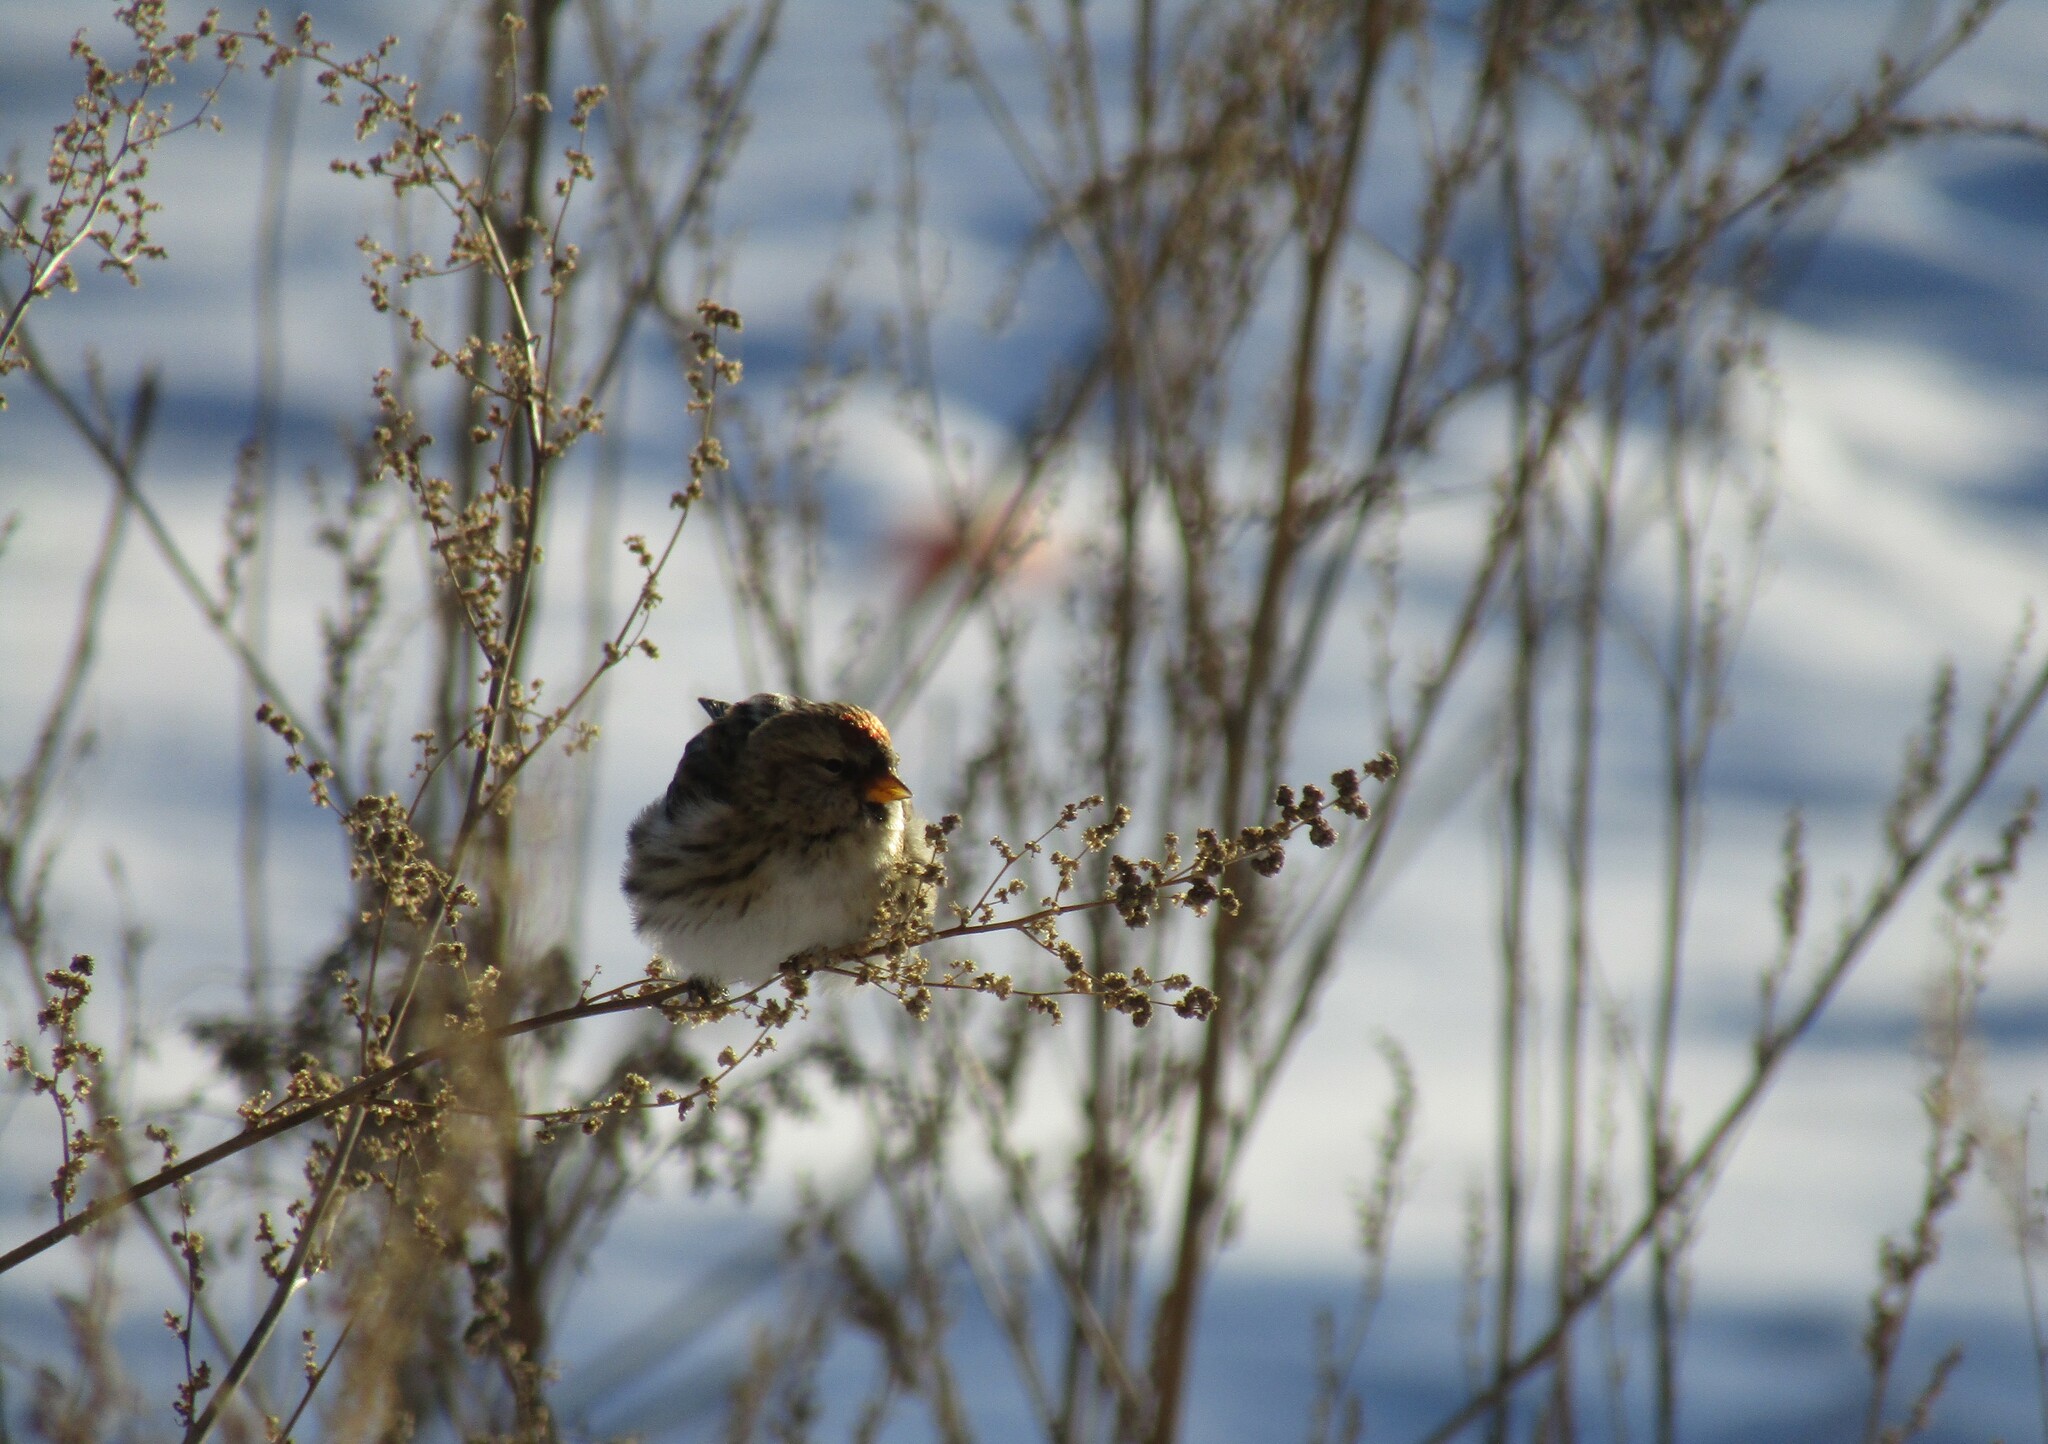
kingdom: Animalia
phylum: Chordata
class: Aves
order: Passeriformes
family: Fringillidae
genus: Acanthis
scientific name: Acanthis flammea
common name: Common redpoll
